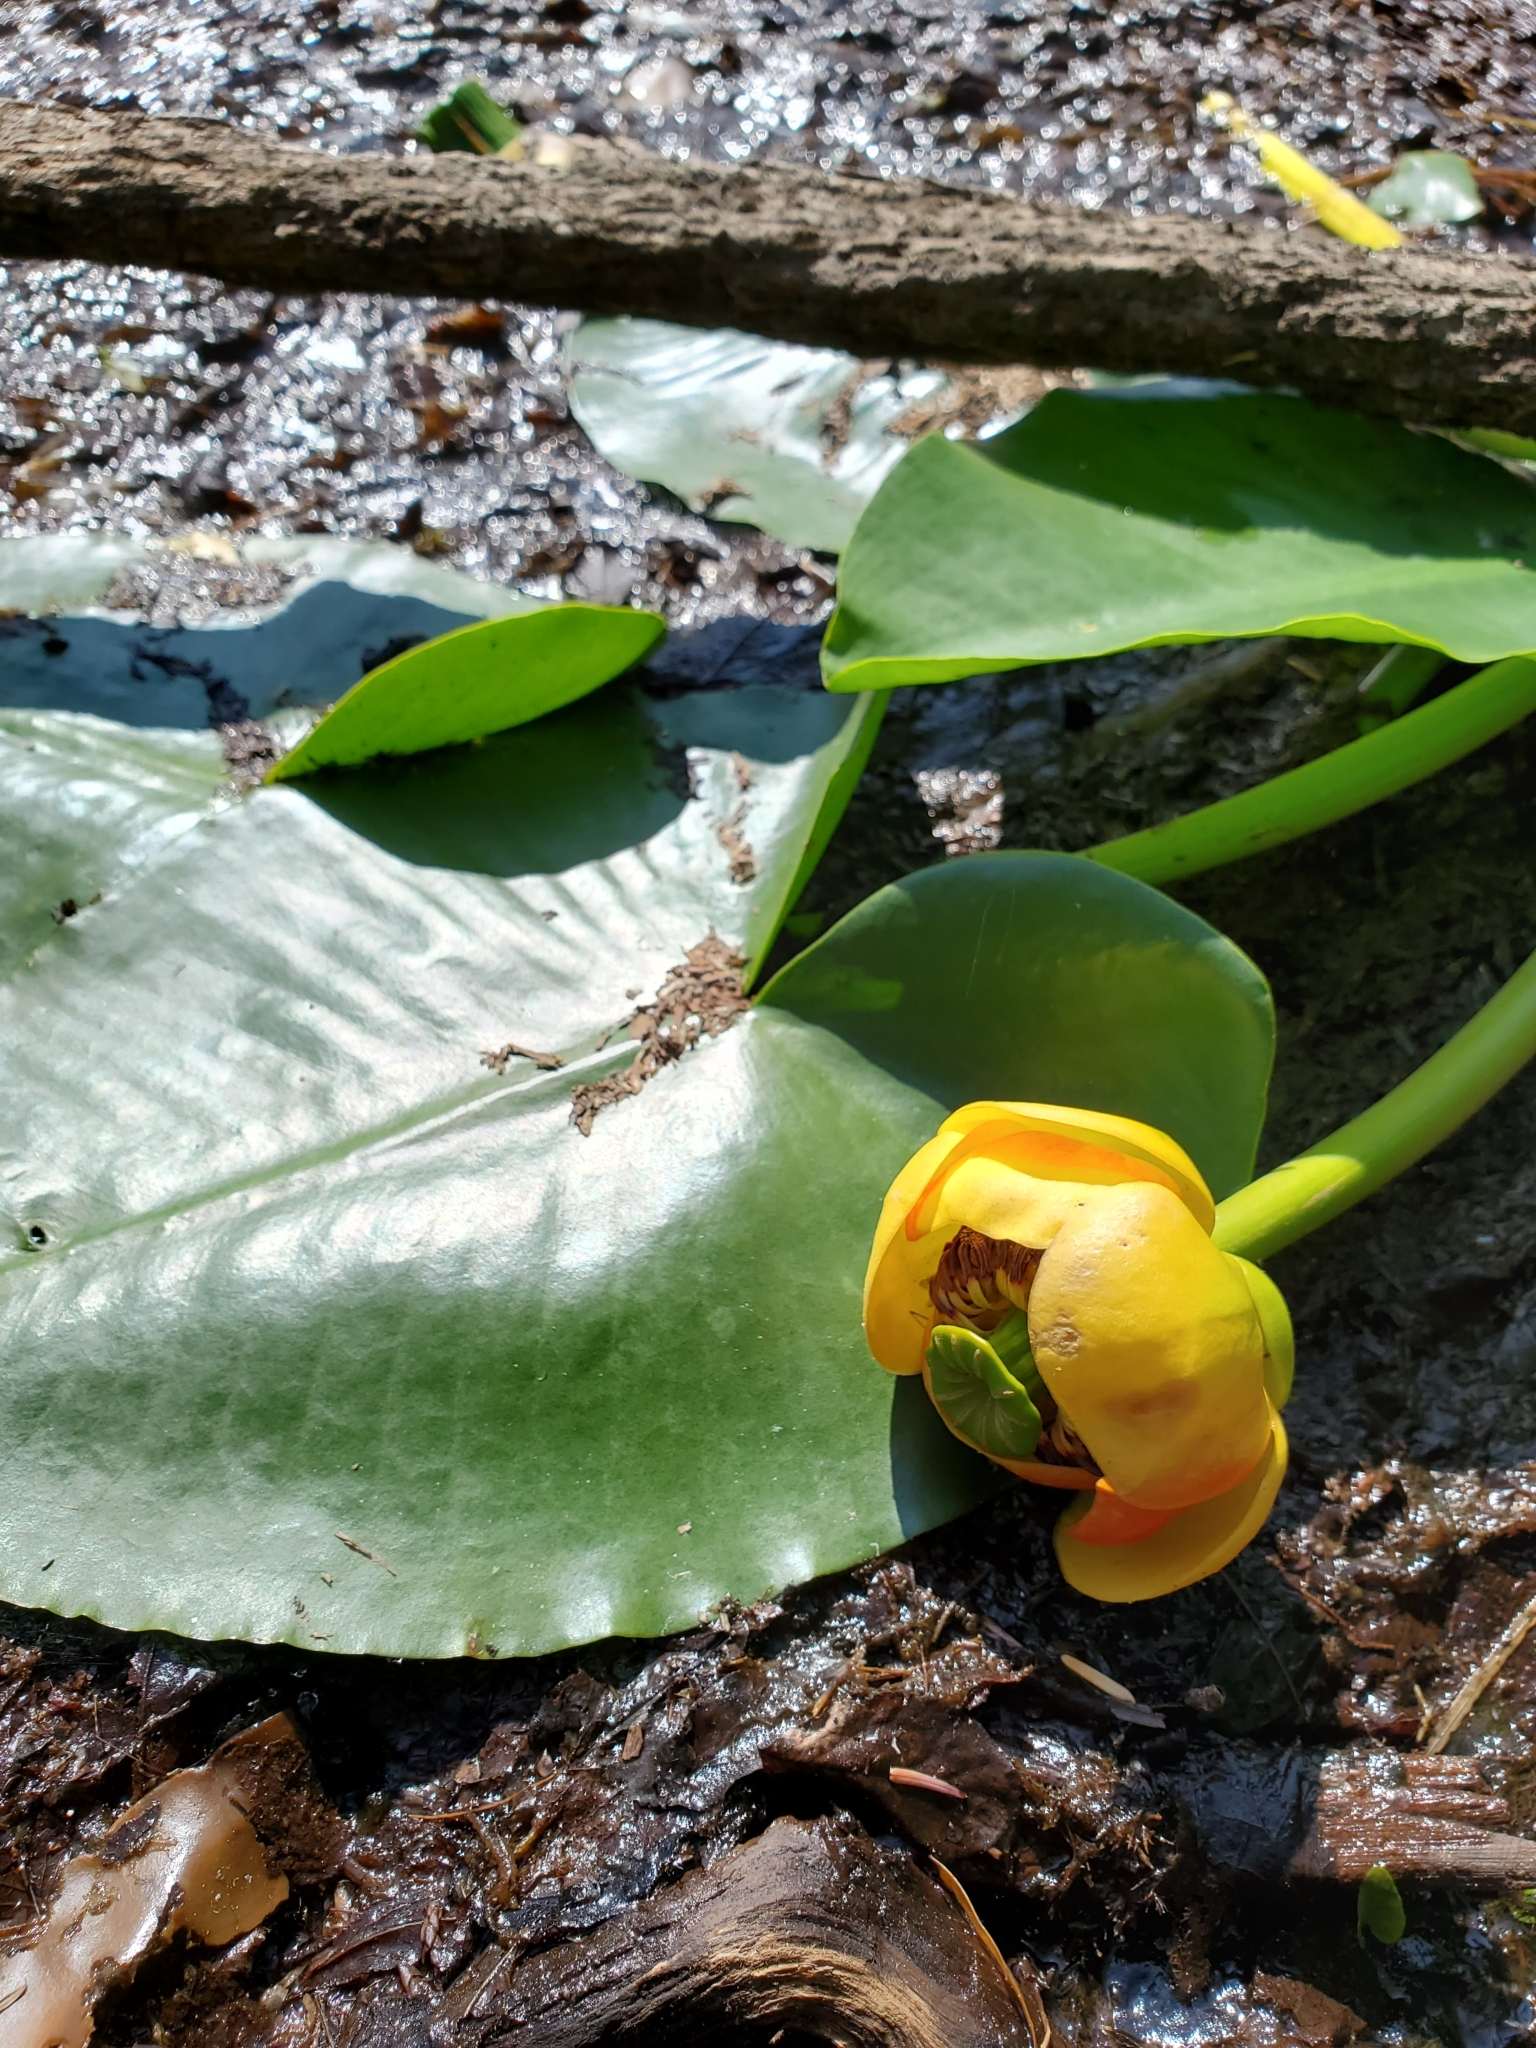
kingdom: Plantae
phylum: Tracheophyta
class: Magnoliopsida
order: Nymphaeales
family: Nymphaeaceae
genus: Nuphar
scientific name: Nuphar polysepala
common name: Rocky mountain cow-lily
